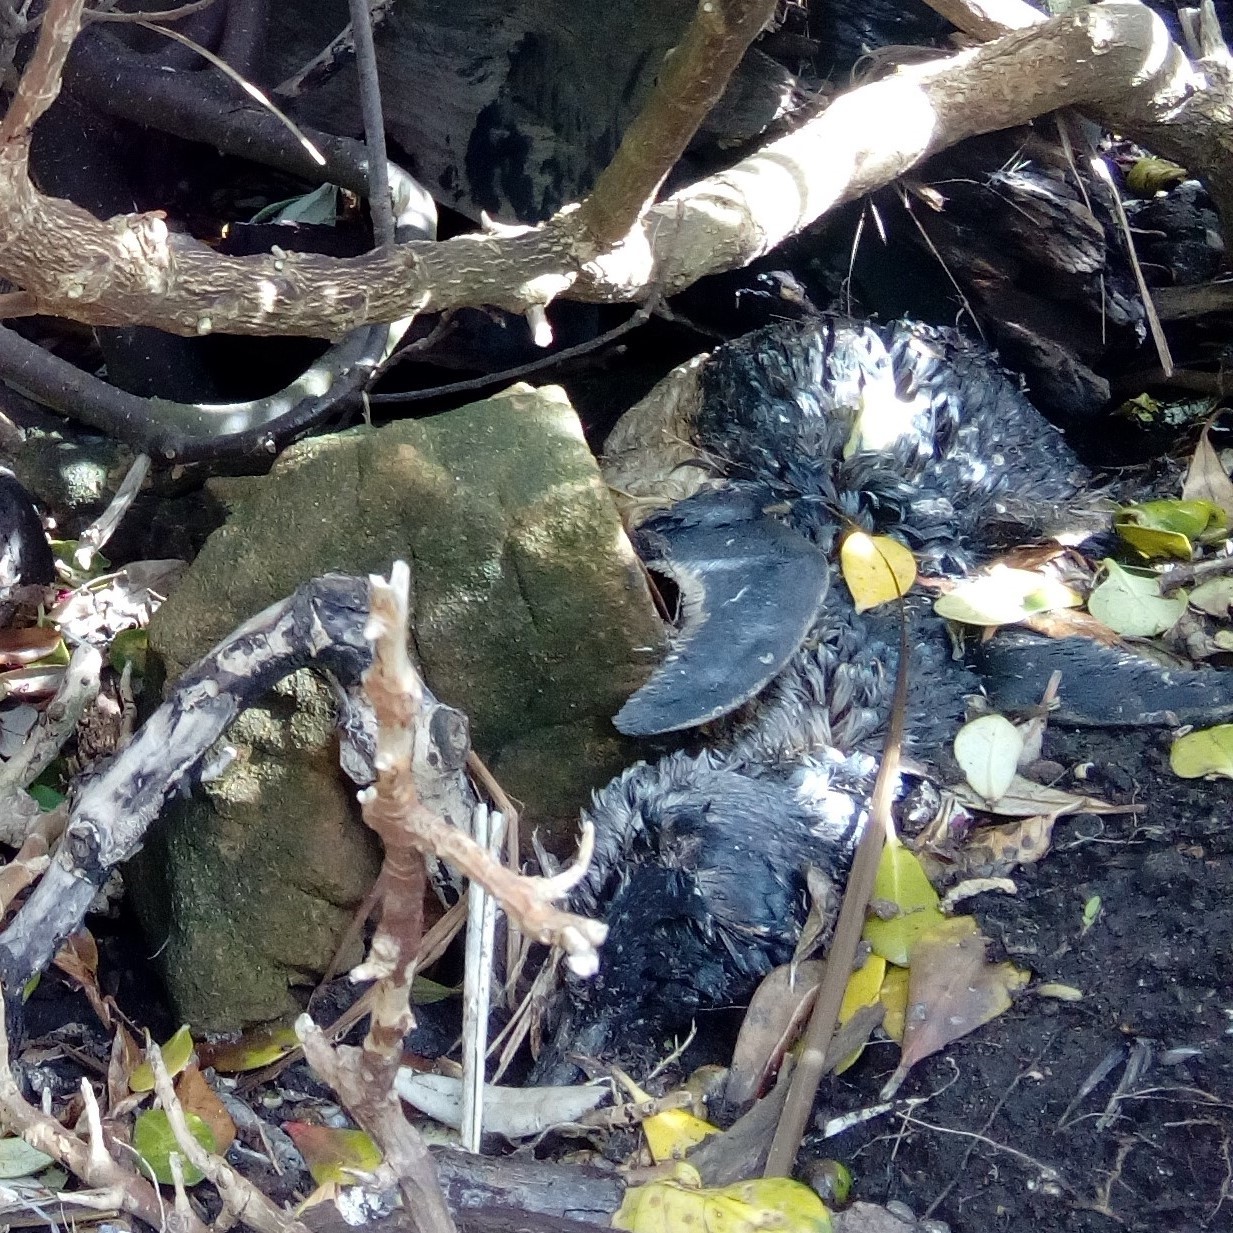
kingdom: Animalia
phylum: Chordata
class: Aves
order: Sphenisciformes
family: Spheniscidae
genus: Eudyptula
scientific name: Eudyptula minor
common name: Little penguin
